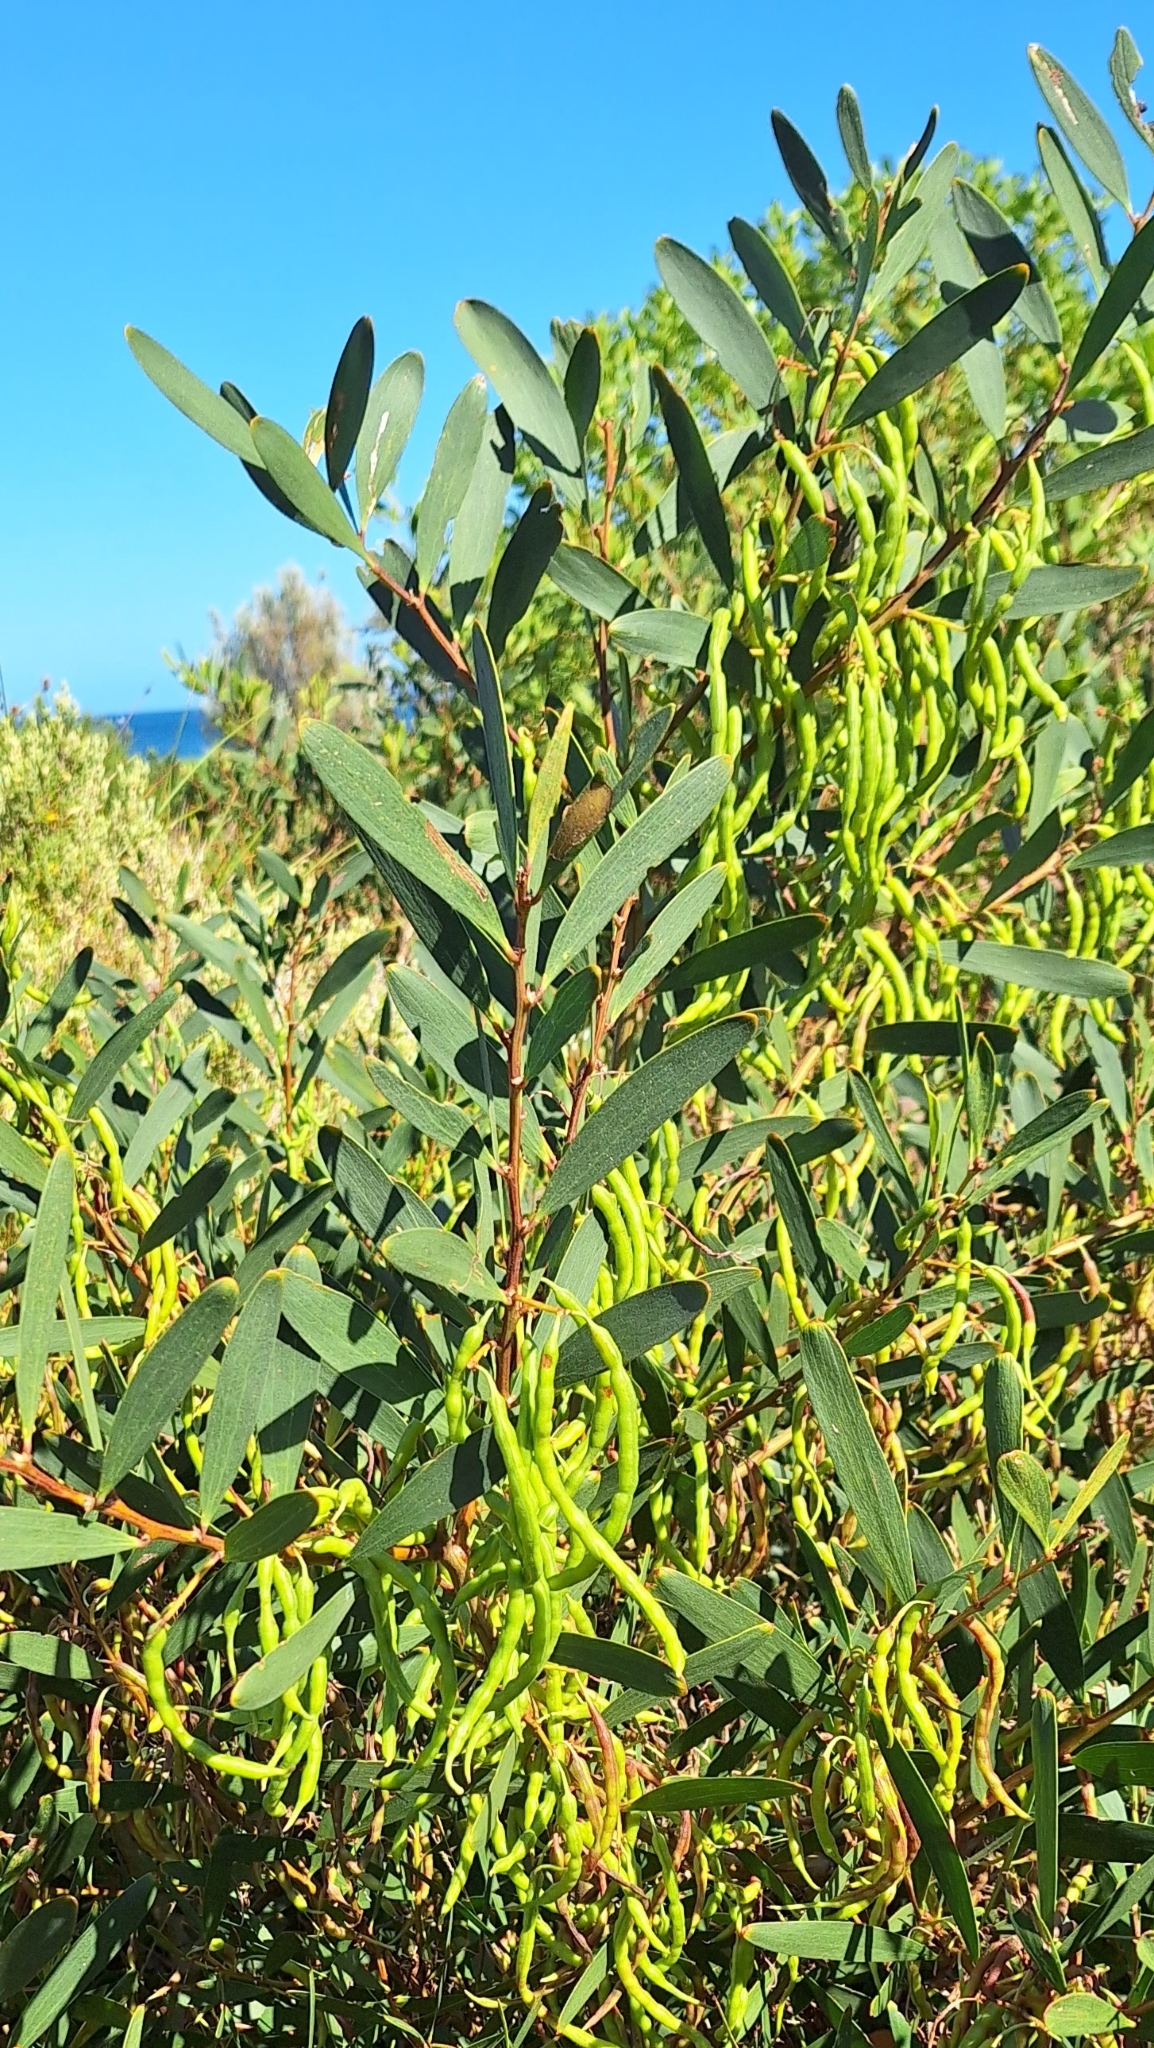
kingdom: Plantae
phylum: Tracheophyta
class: Magnoliopsida
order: Fabales
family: Fabaceae
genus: Acacia
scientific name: Acacia longifolia
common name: Sydney golden wattle
